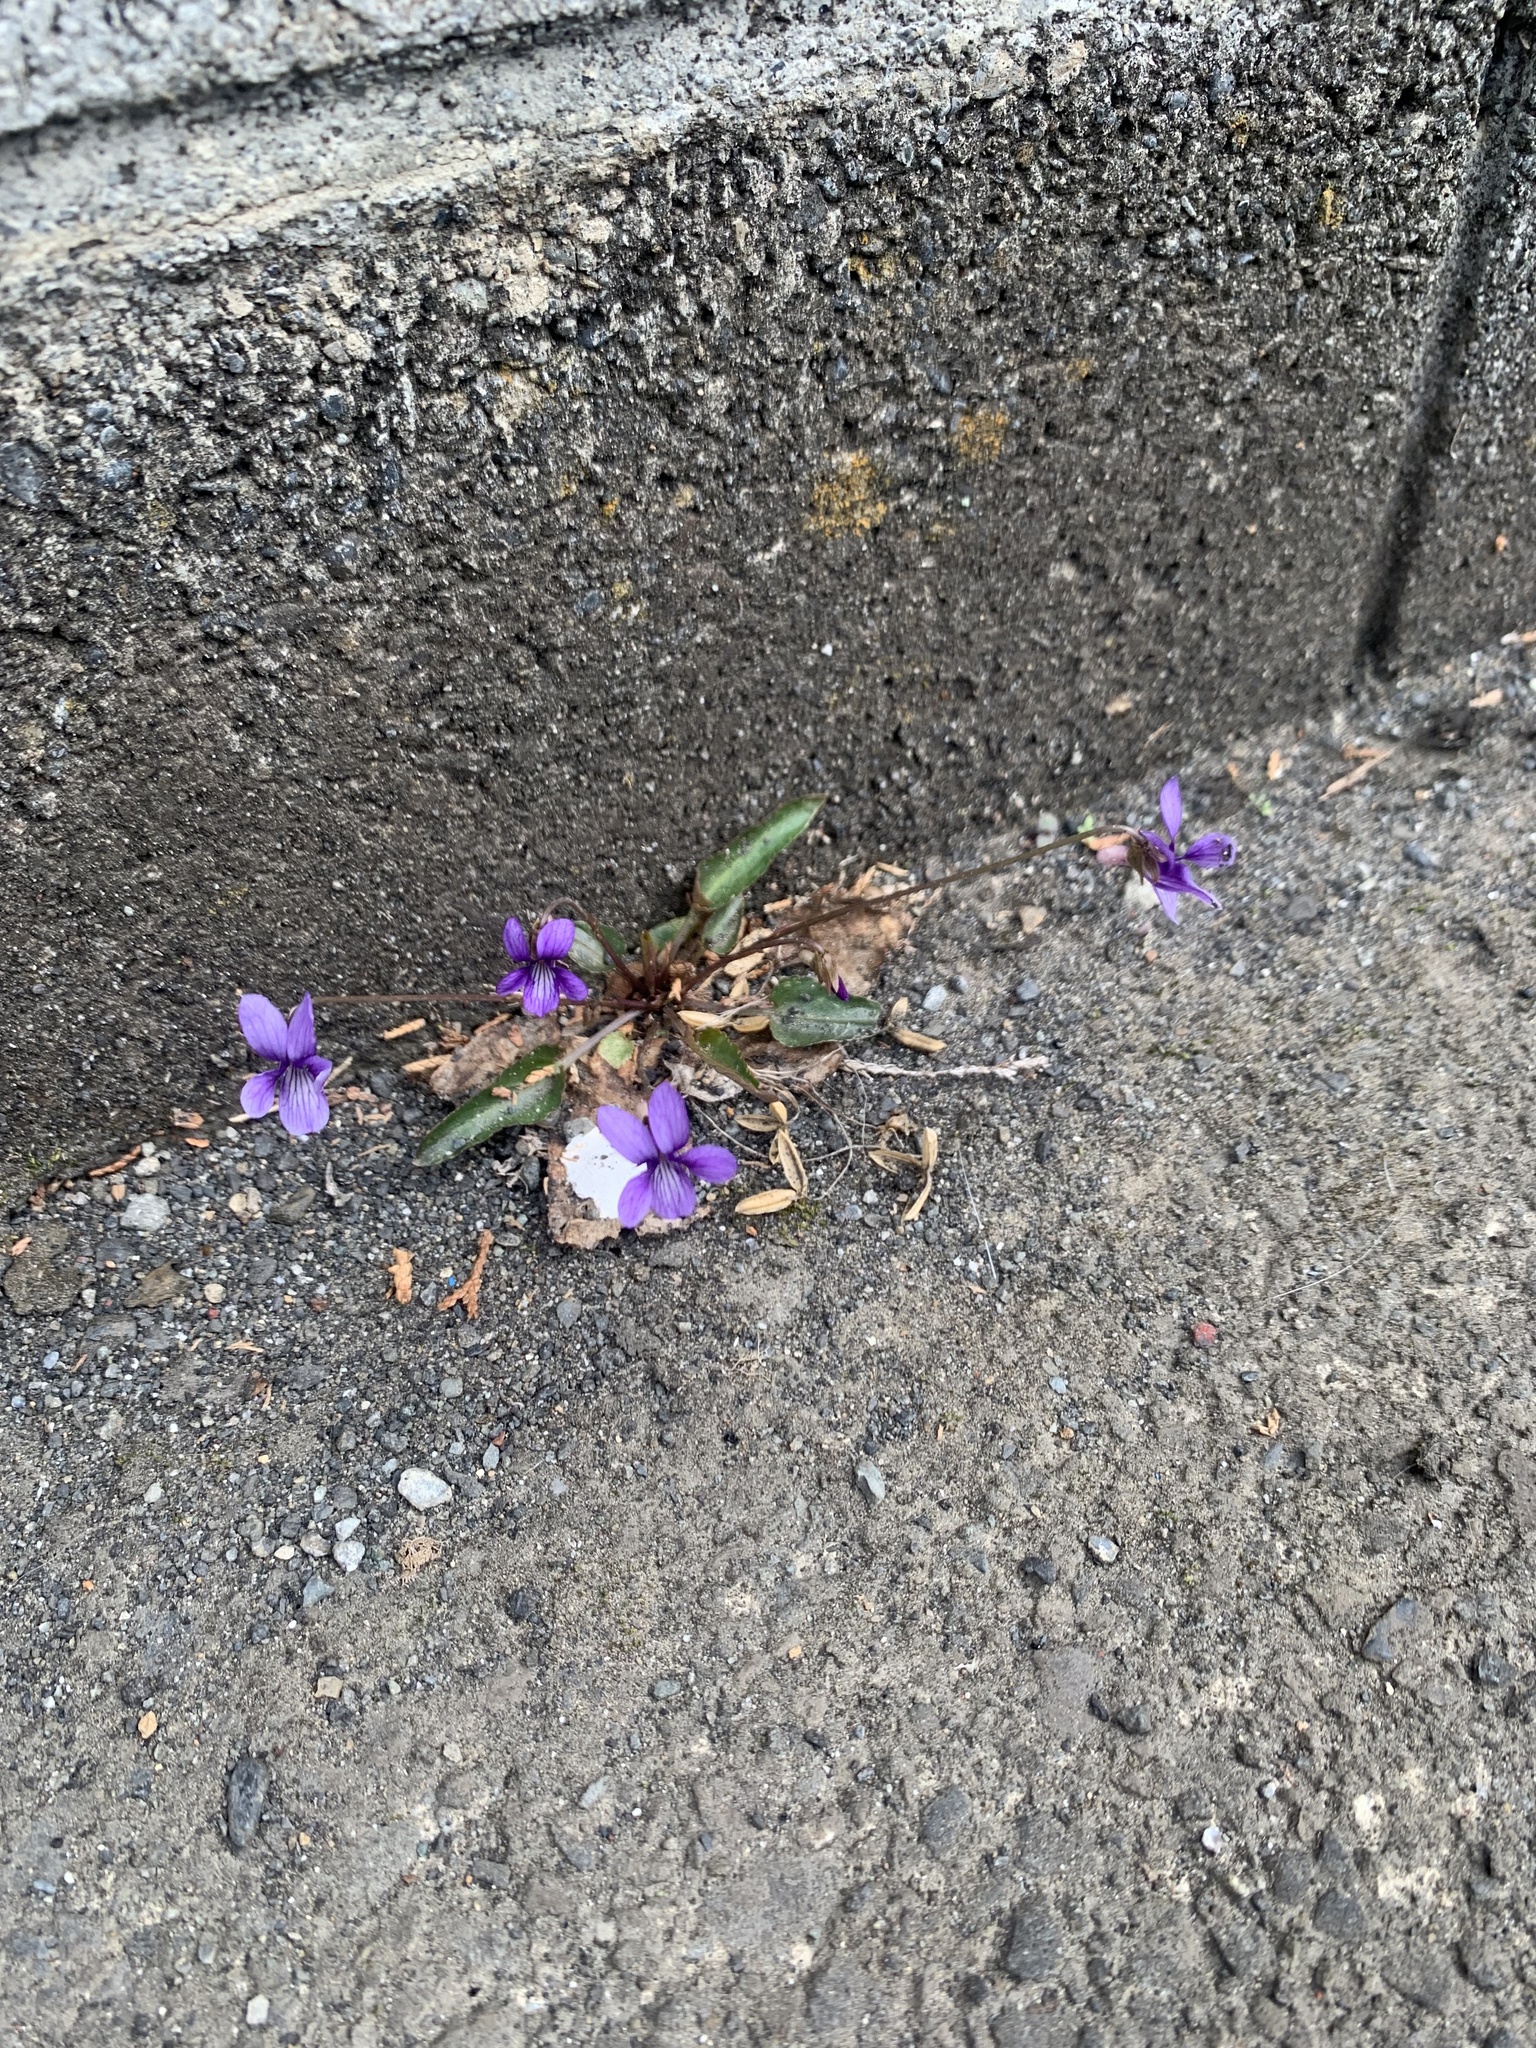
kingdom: Plantae
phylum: Tracheophyta
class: Magnoliopsida
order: Malpighiales
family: Violaceae
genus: Viola
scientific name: Viola mandshurica
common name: Manchuria violet
